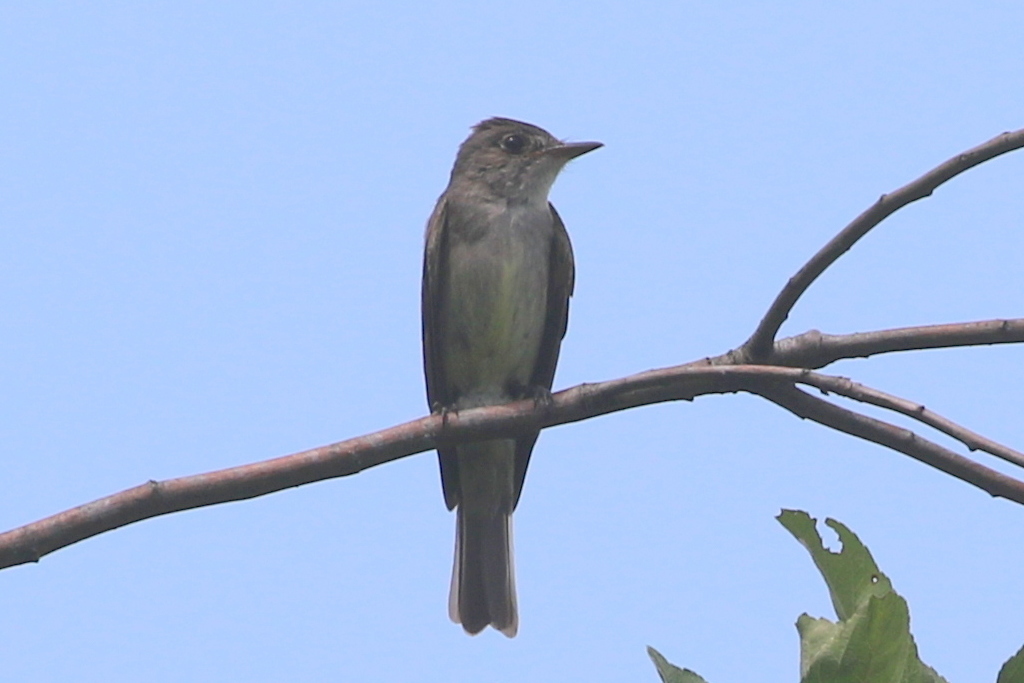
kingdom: Animalia
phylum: Chordata
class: Aves
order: Passeriformes
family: Tyrannidae
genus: Contopus
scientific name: Contopus virens
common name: Eastern wood-pewee
